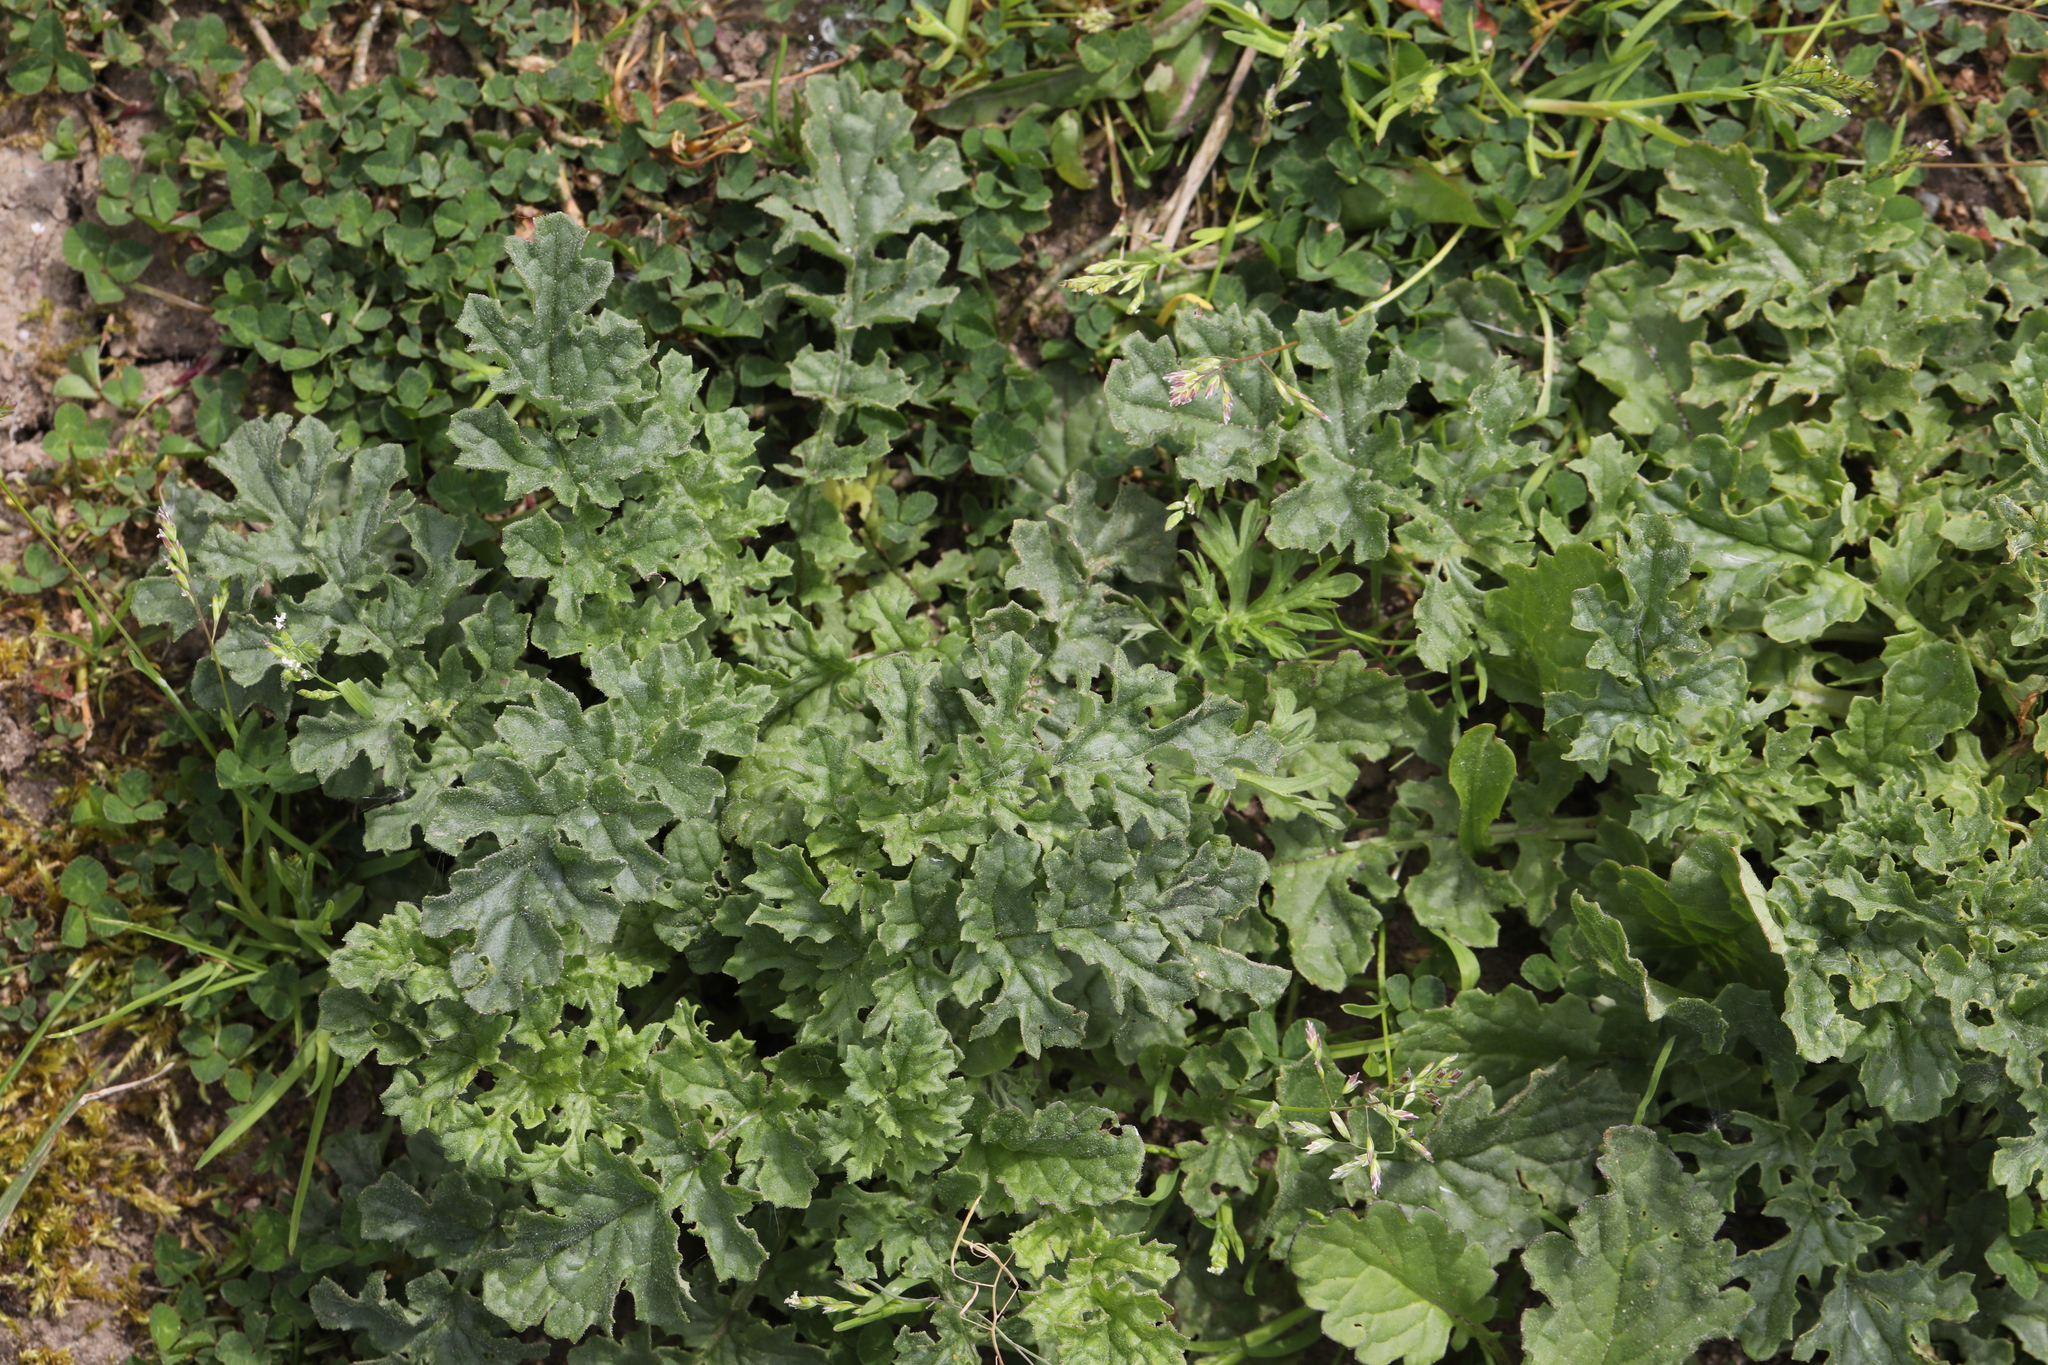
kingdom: Plantae
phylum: Tracheophyta
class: Magnoliopsida
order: Asterales
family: Asteraceae
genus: Jacobaea
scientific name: Jacobaea vulgaris
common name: Stinking willie
